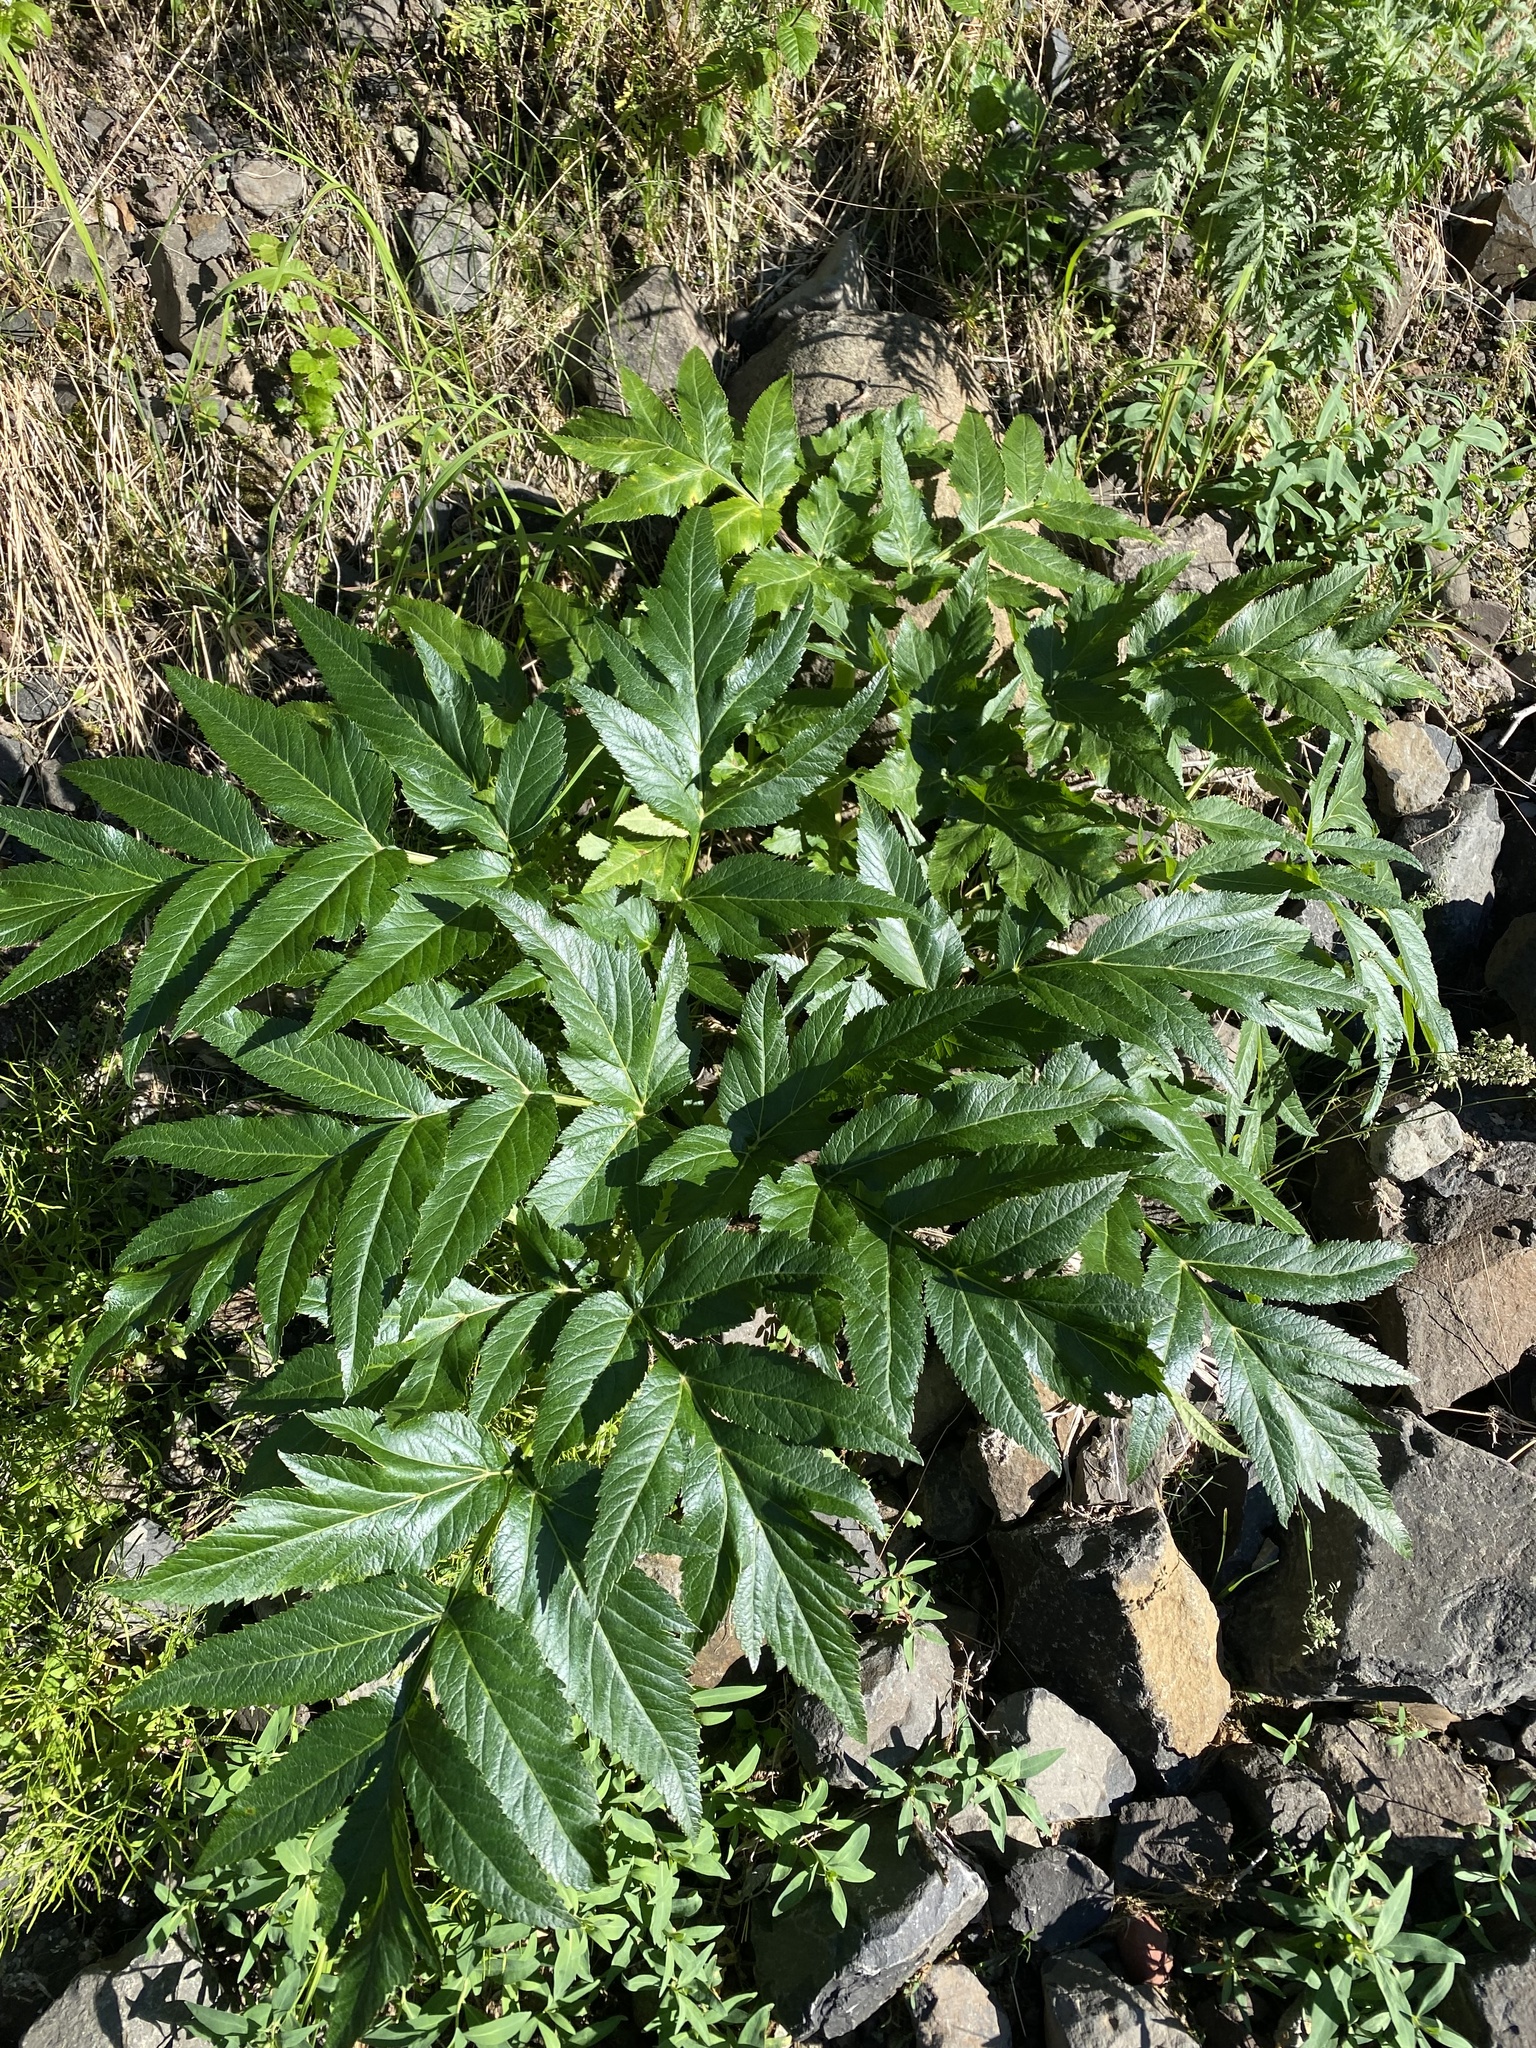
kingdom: Plantae
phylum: Tracheophyta
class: Magnoliopsida
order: Apiales
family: Apiaceae
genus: Angelica
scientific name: Angelica decurrens
